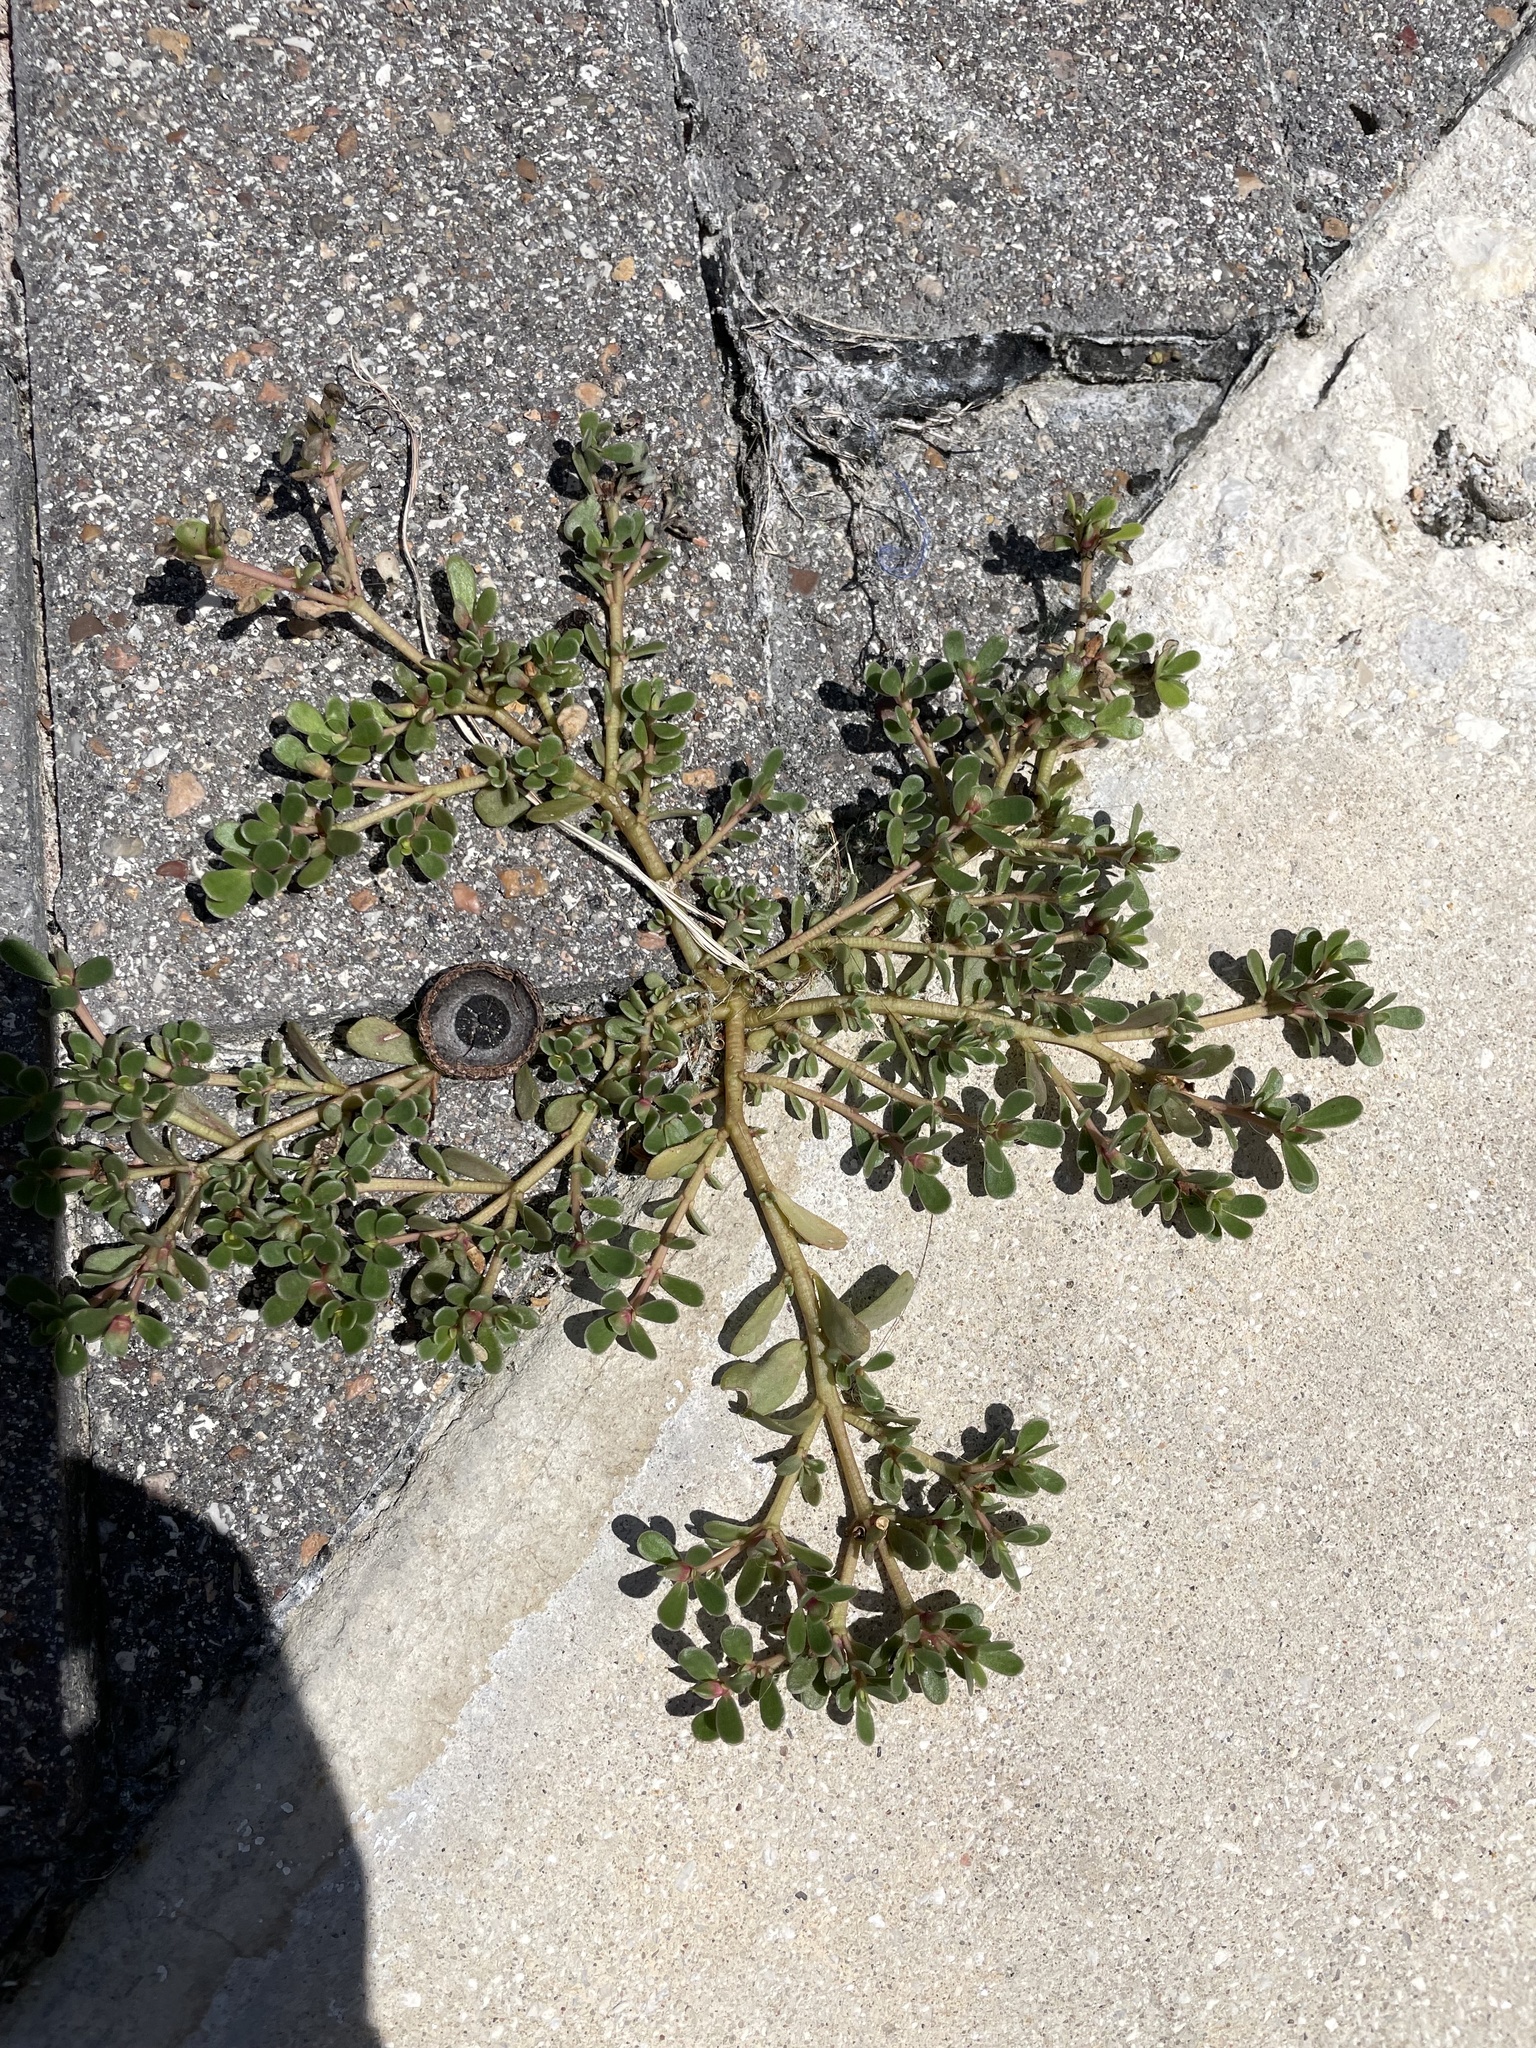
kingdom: Plantae
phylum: Tracheophyta
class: Magnoliopsida
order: Caryophyllales
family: Portulacaceae
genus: Portulaca
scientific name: Portulaca oleracea
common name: Common purslane
